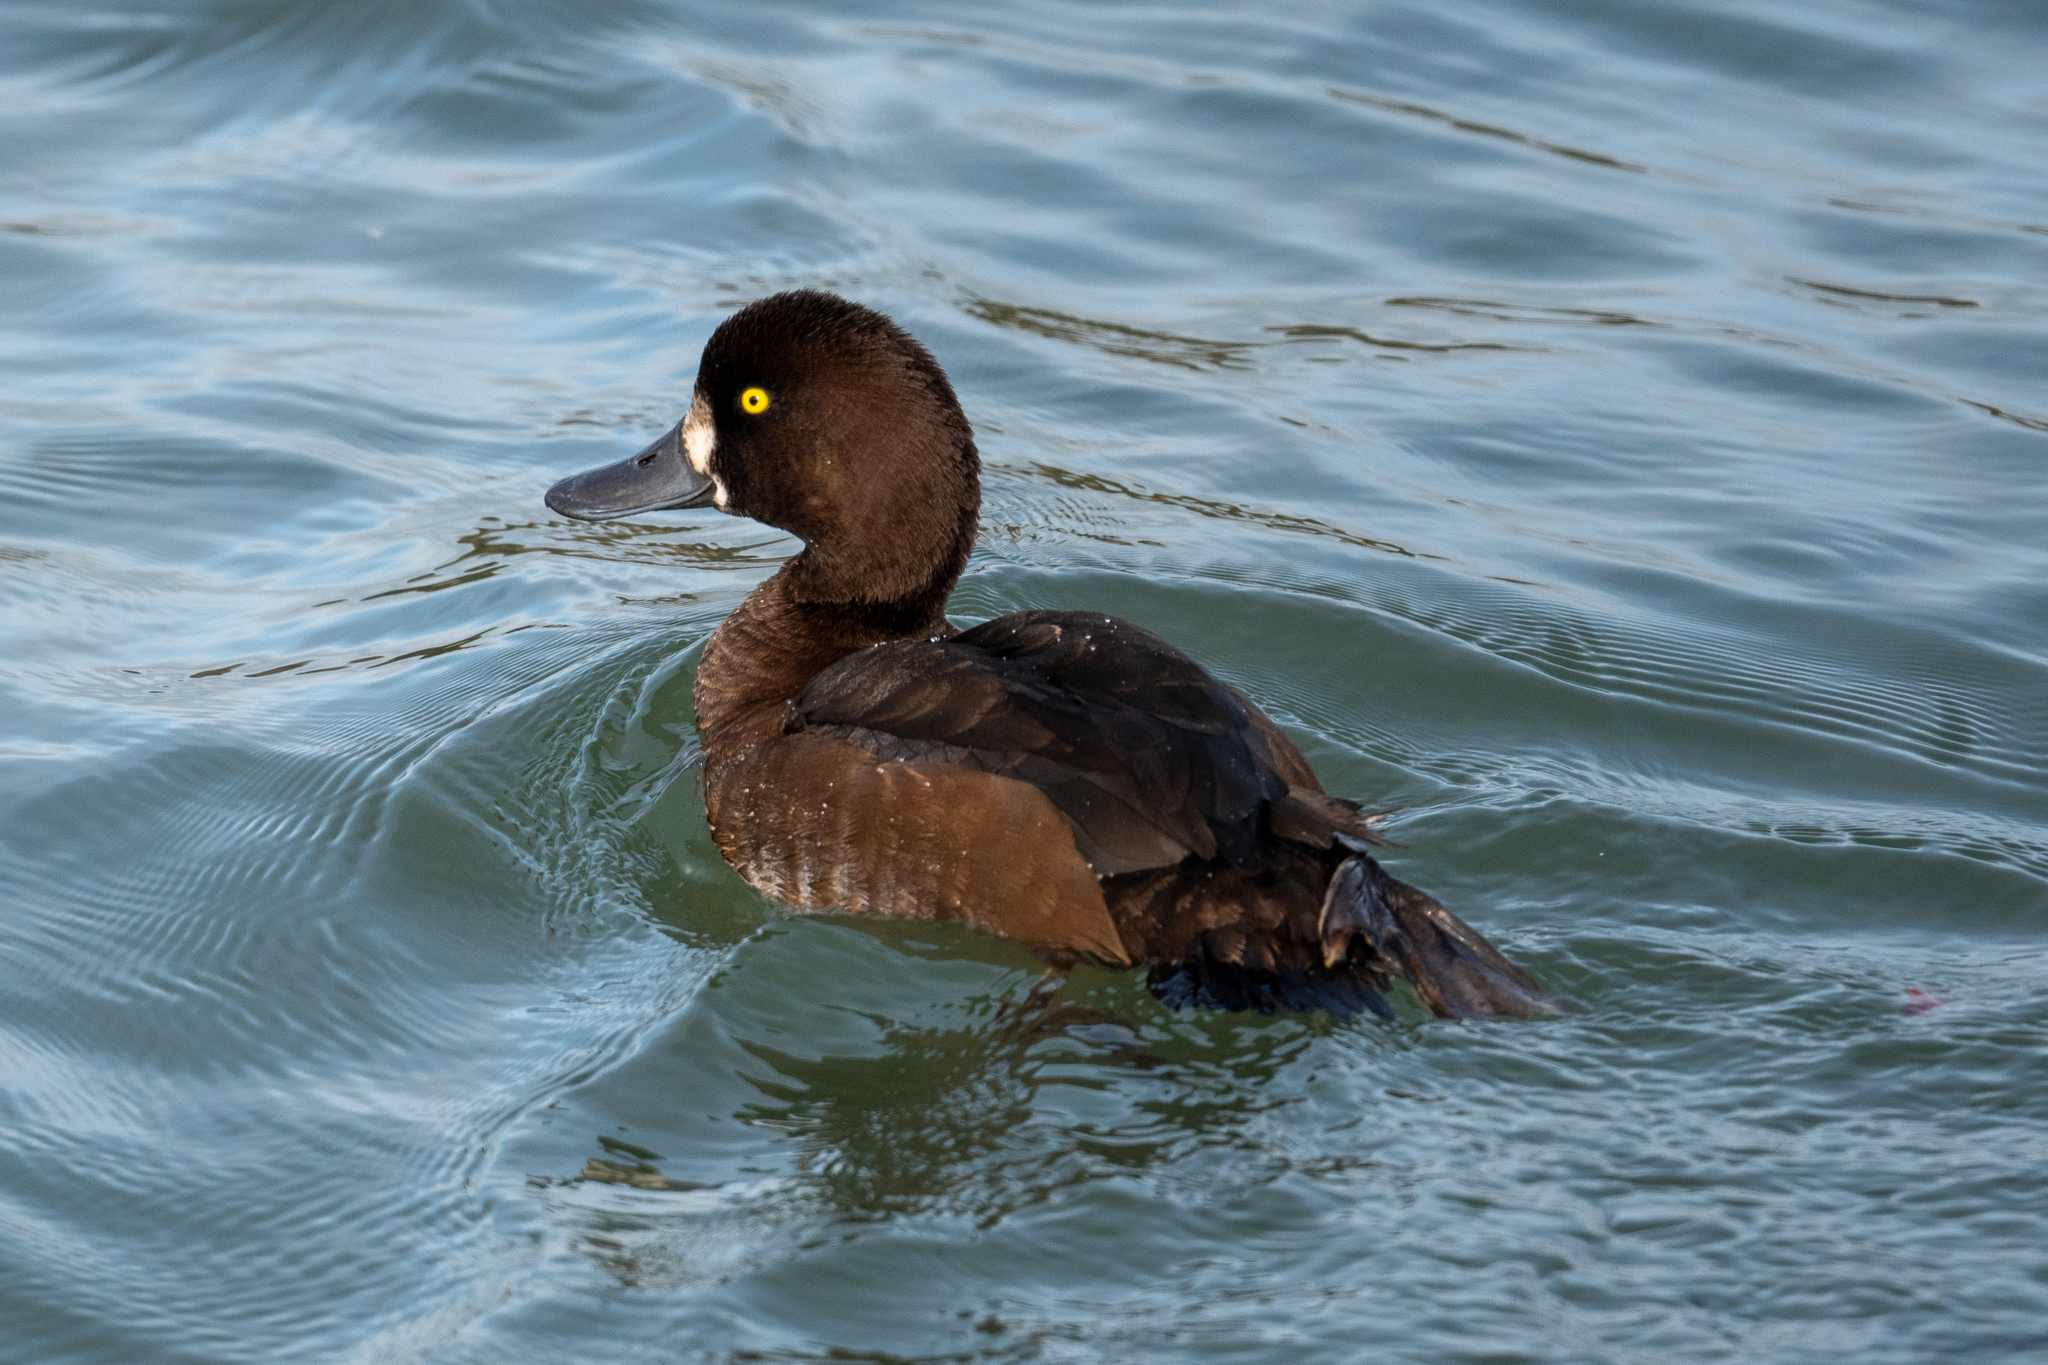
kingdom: Animalia
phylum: Chordata
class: Aves
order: Anseriformes
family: Anatidae
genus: Aythya
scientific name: Aythya marila
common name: Greater scaup
